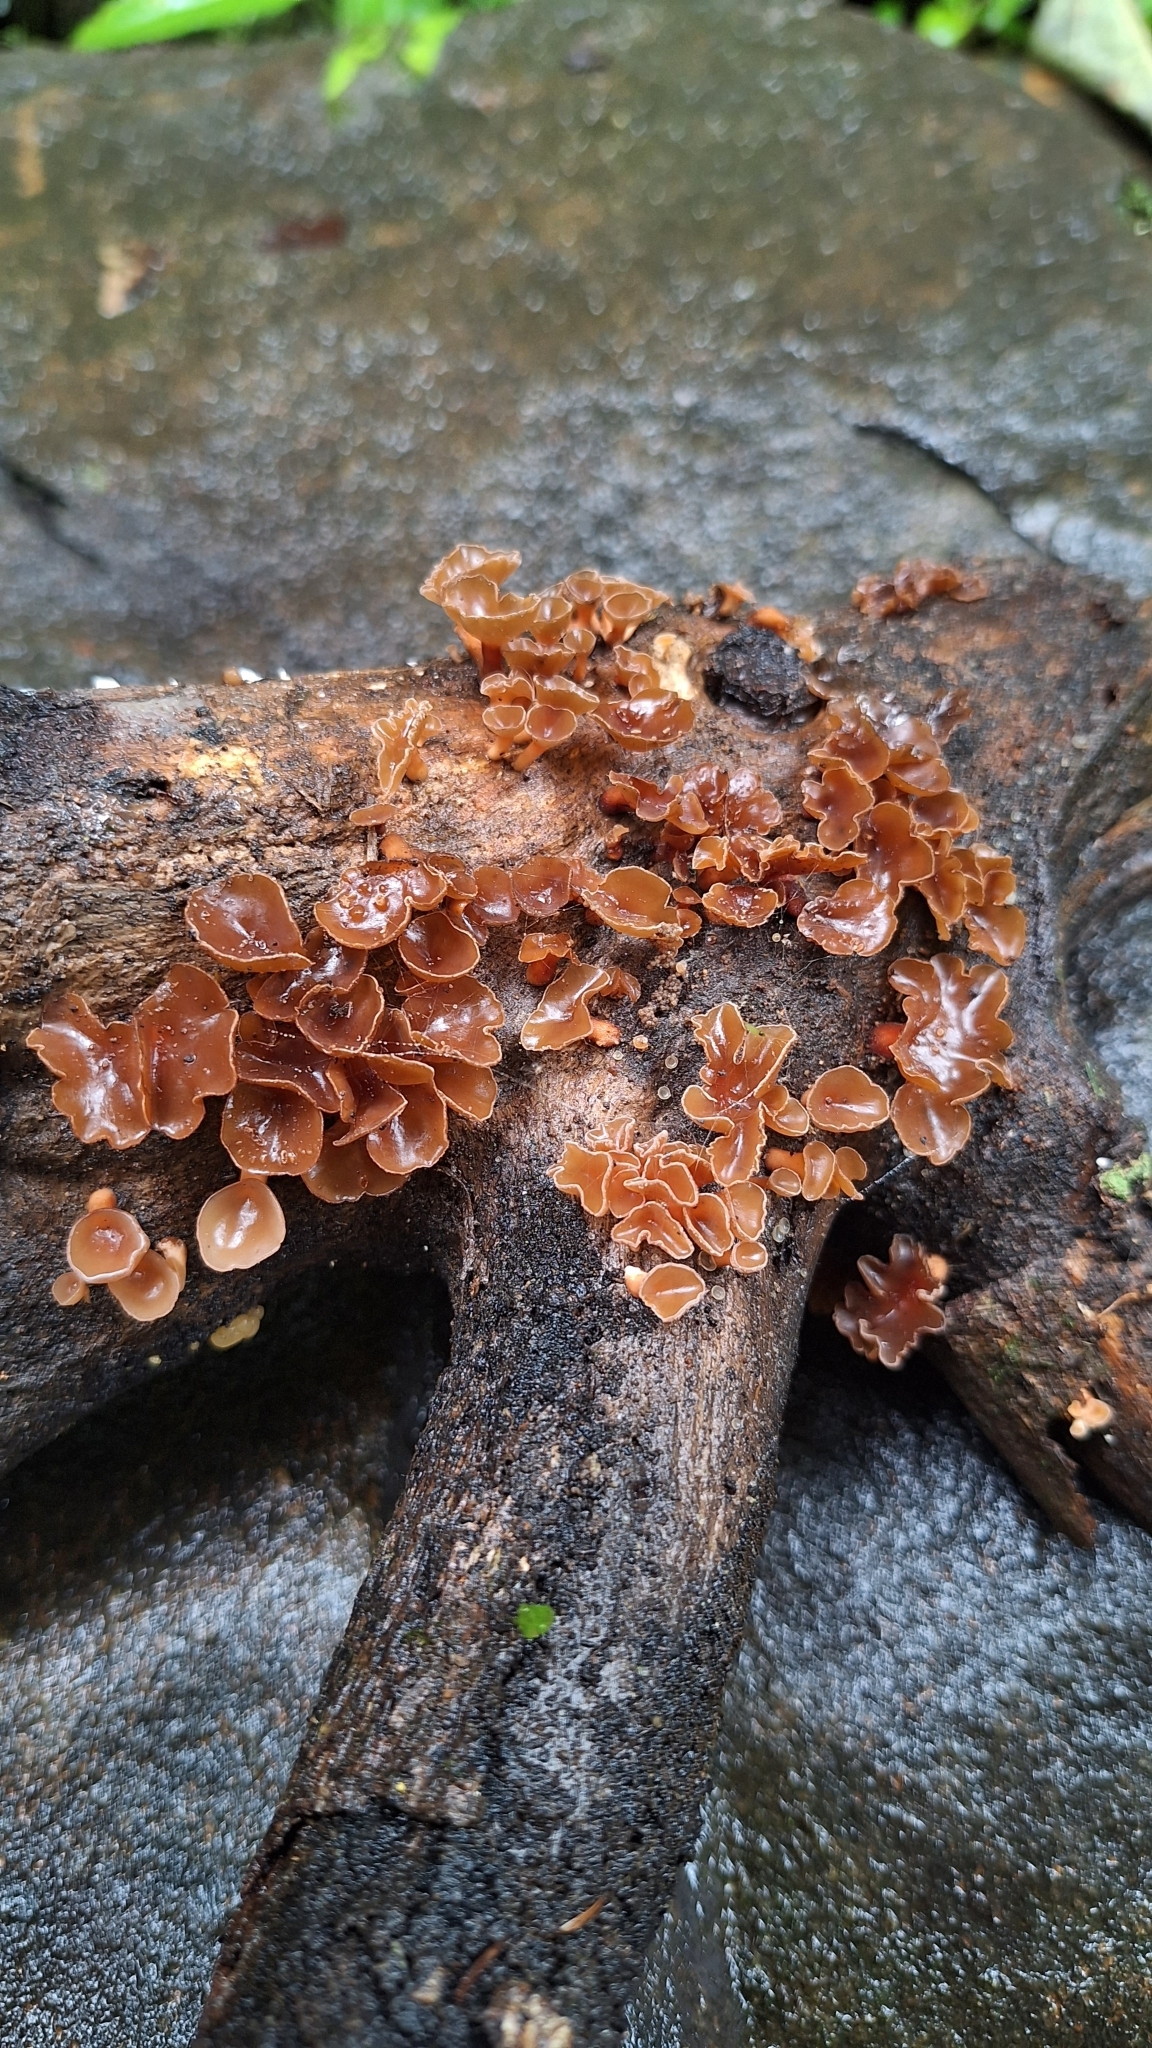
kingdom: Fungi
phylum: Basidiomycota
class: Dacrymycetes
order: Dacrymycetales
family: Dacrymycetaceae
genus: Dacryopinax
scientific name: Dacryopinax elegans
